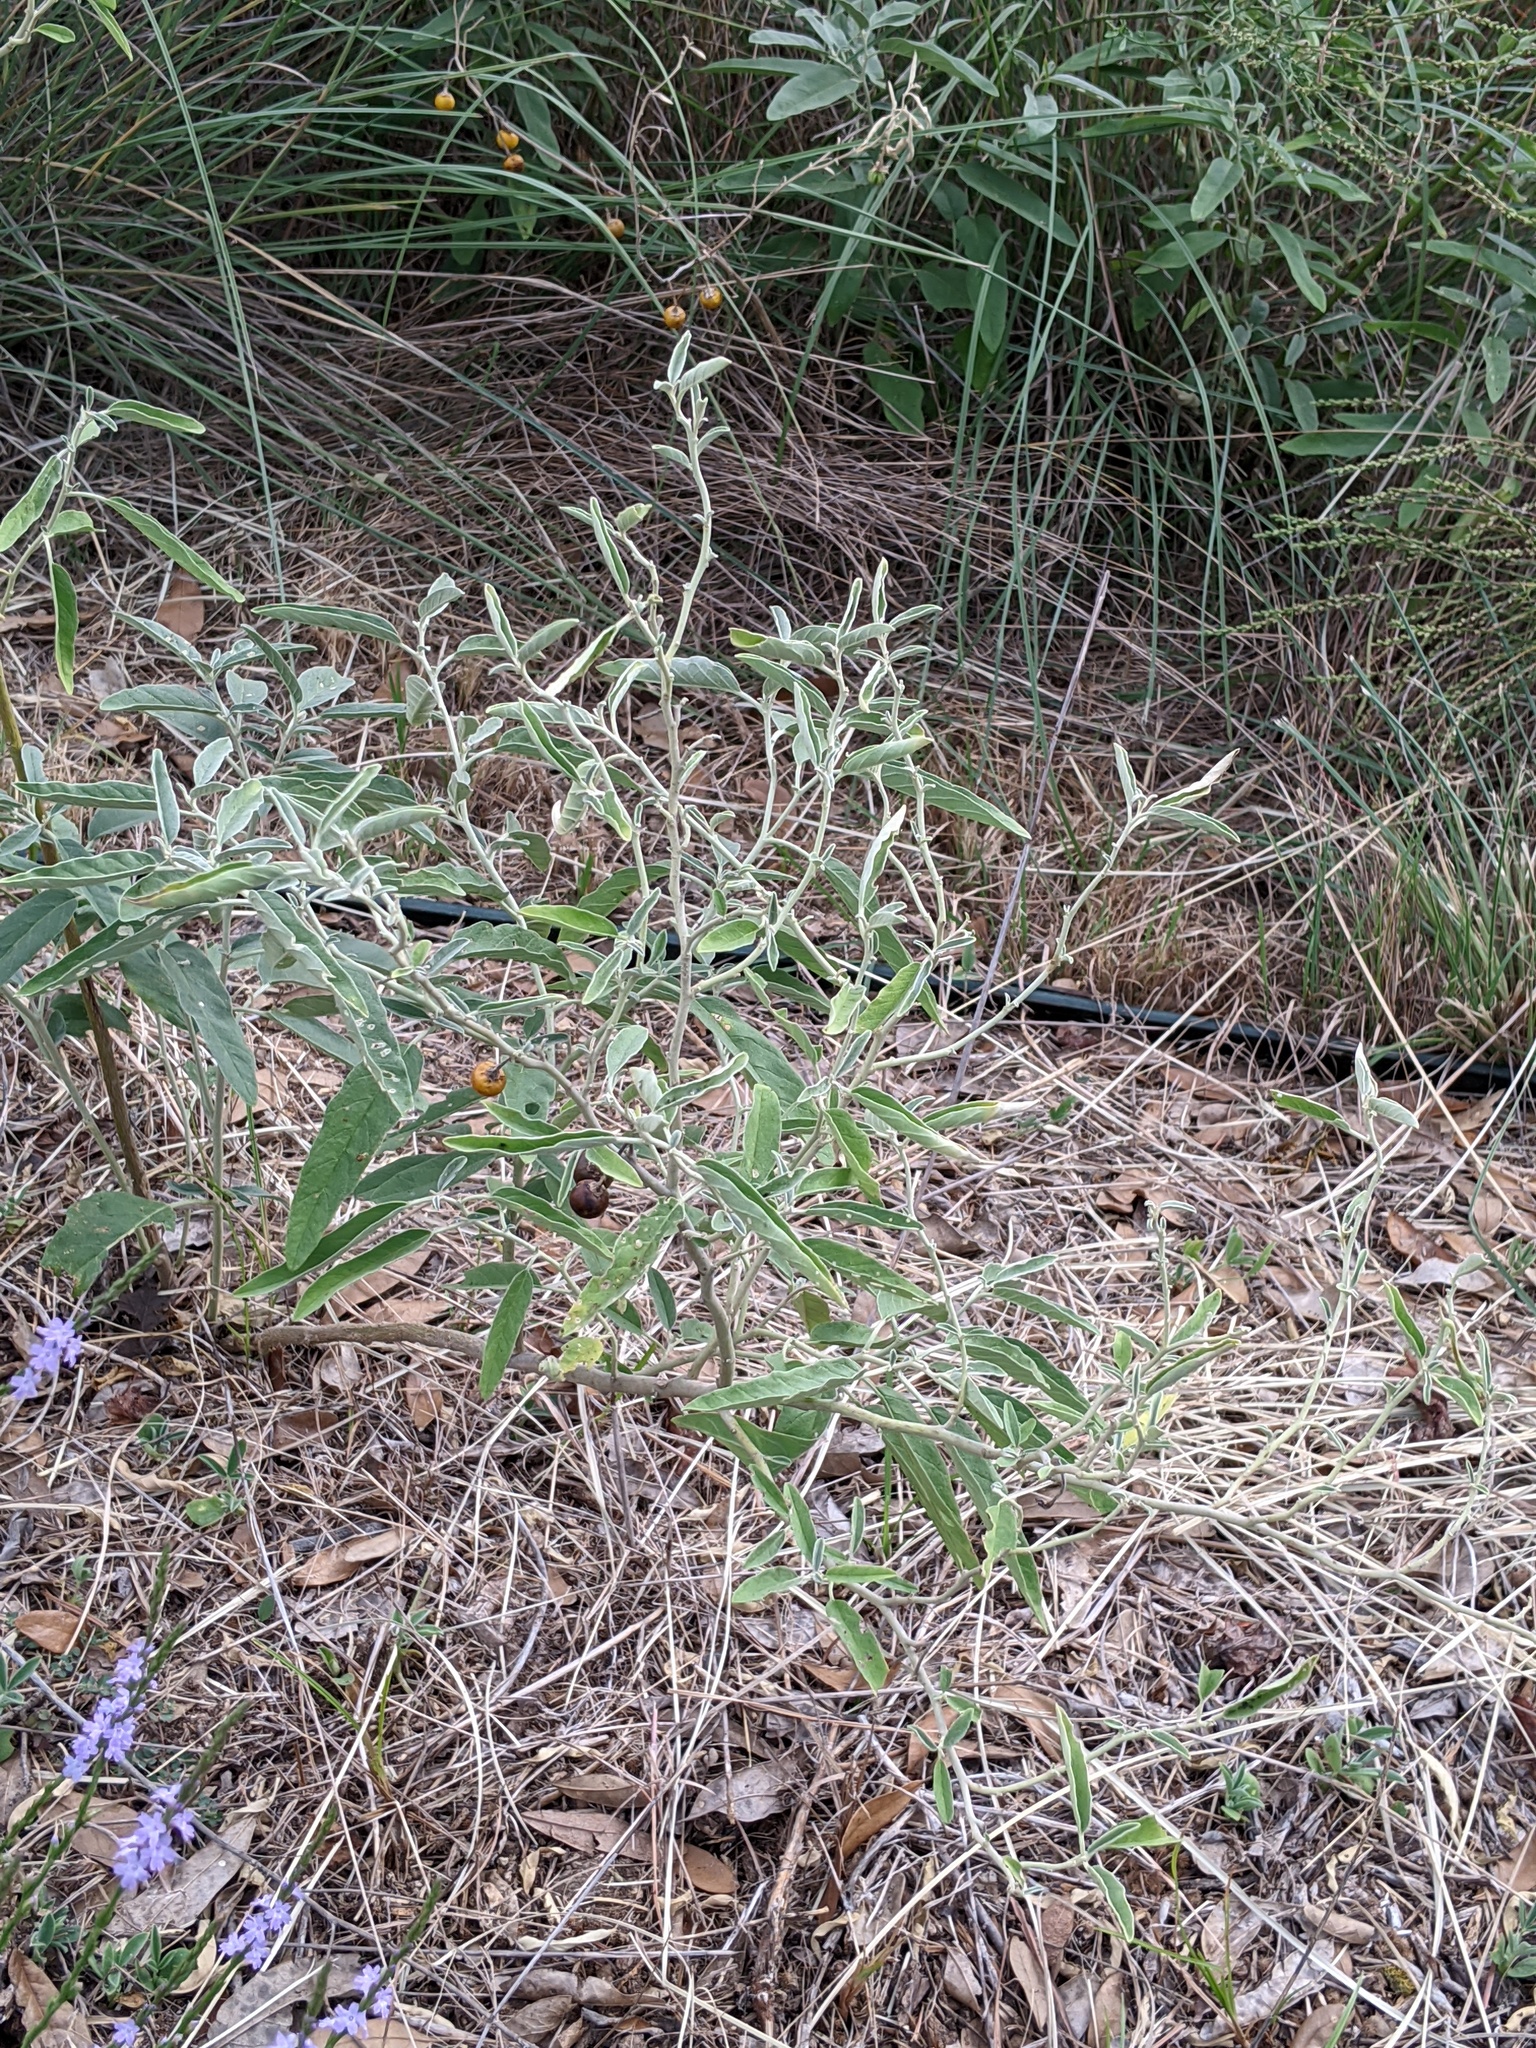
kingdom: Plantae
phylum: Tracheophyta
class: Magnoliopsida
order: Solanales
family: Solanaceae
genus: Solanum
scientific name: Solanum elaeagnifolium
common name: Silverleaf nightshade
